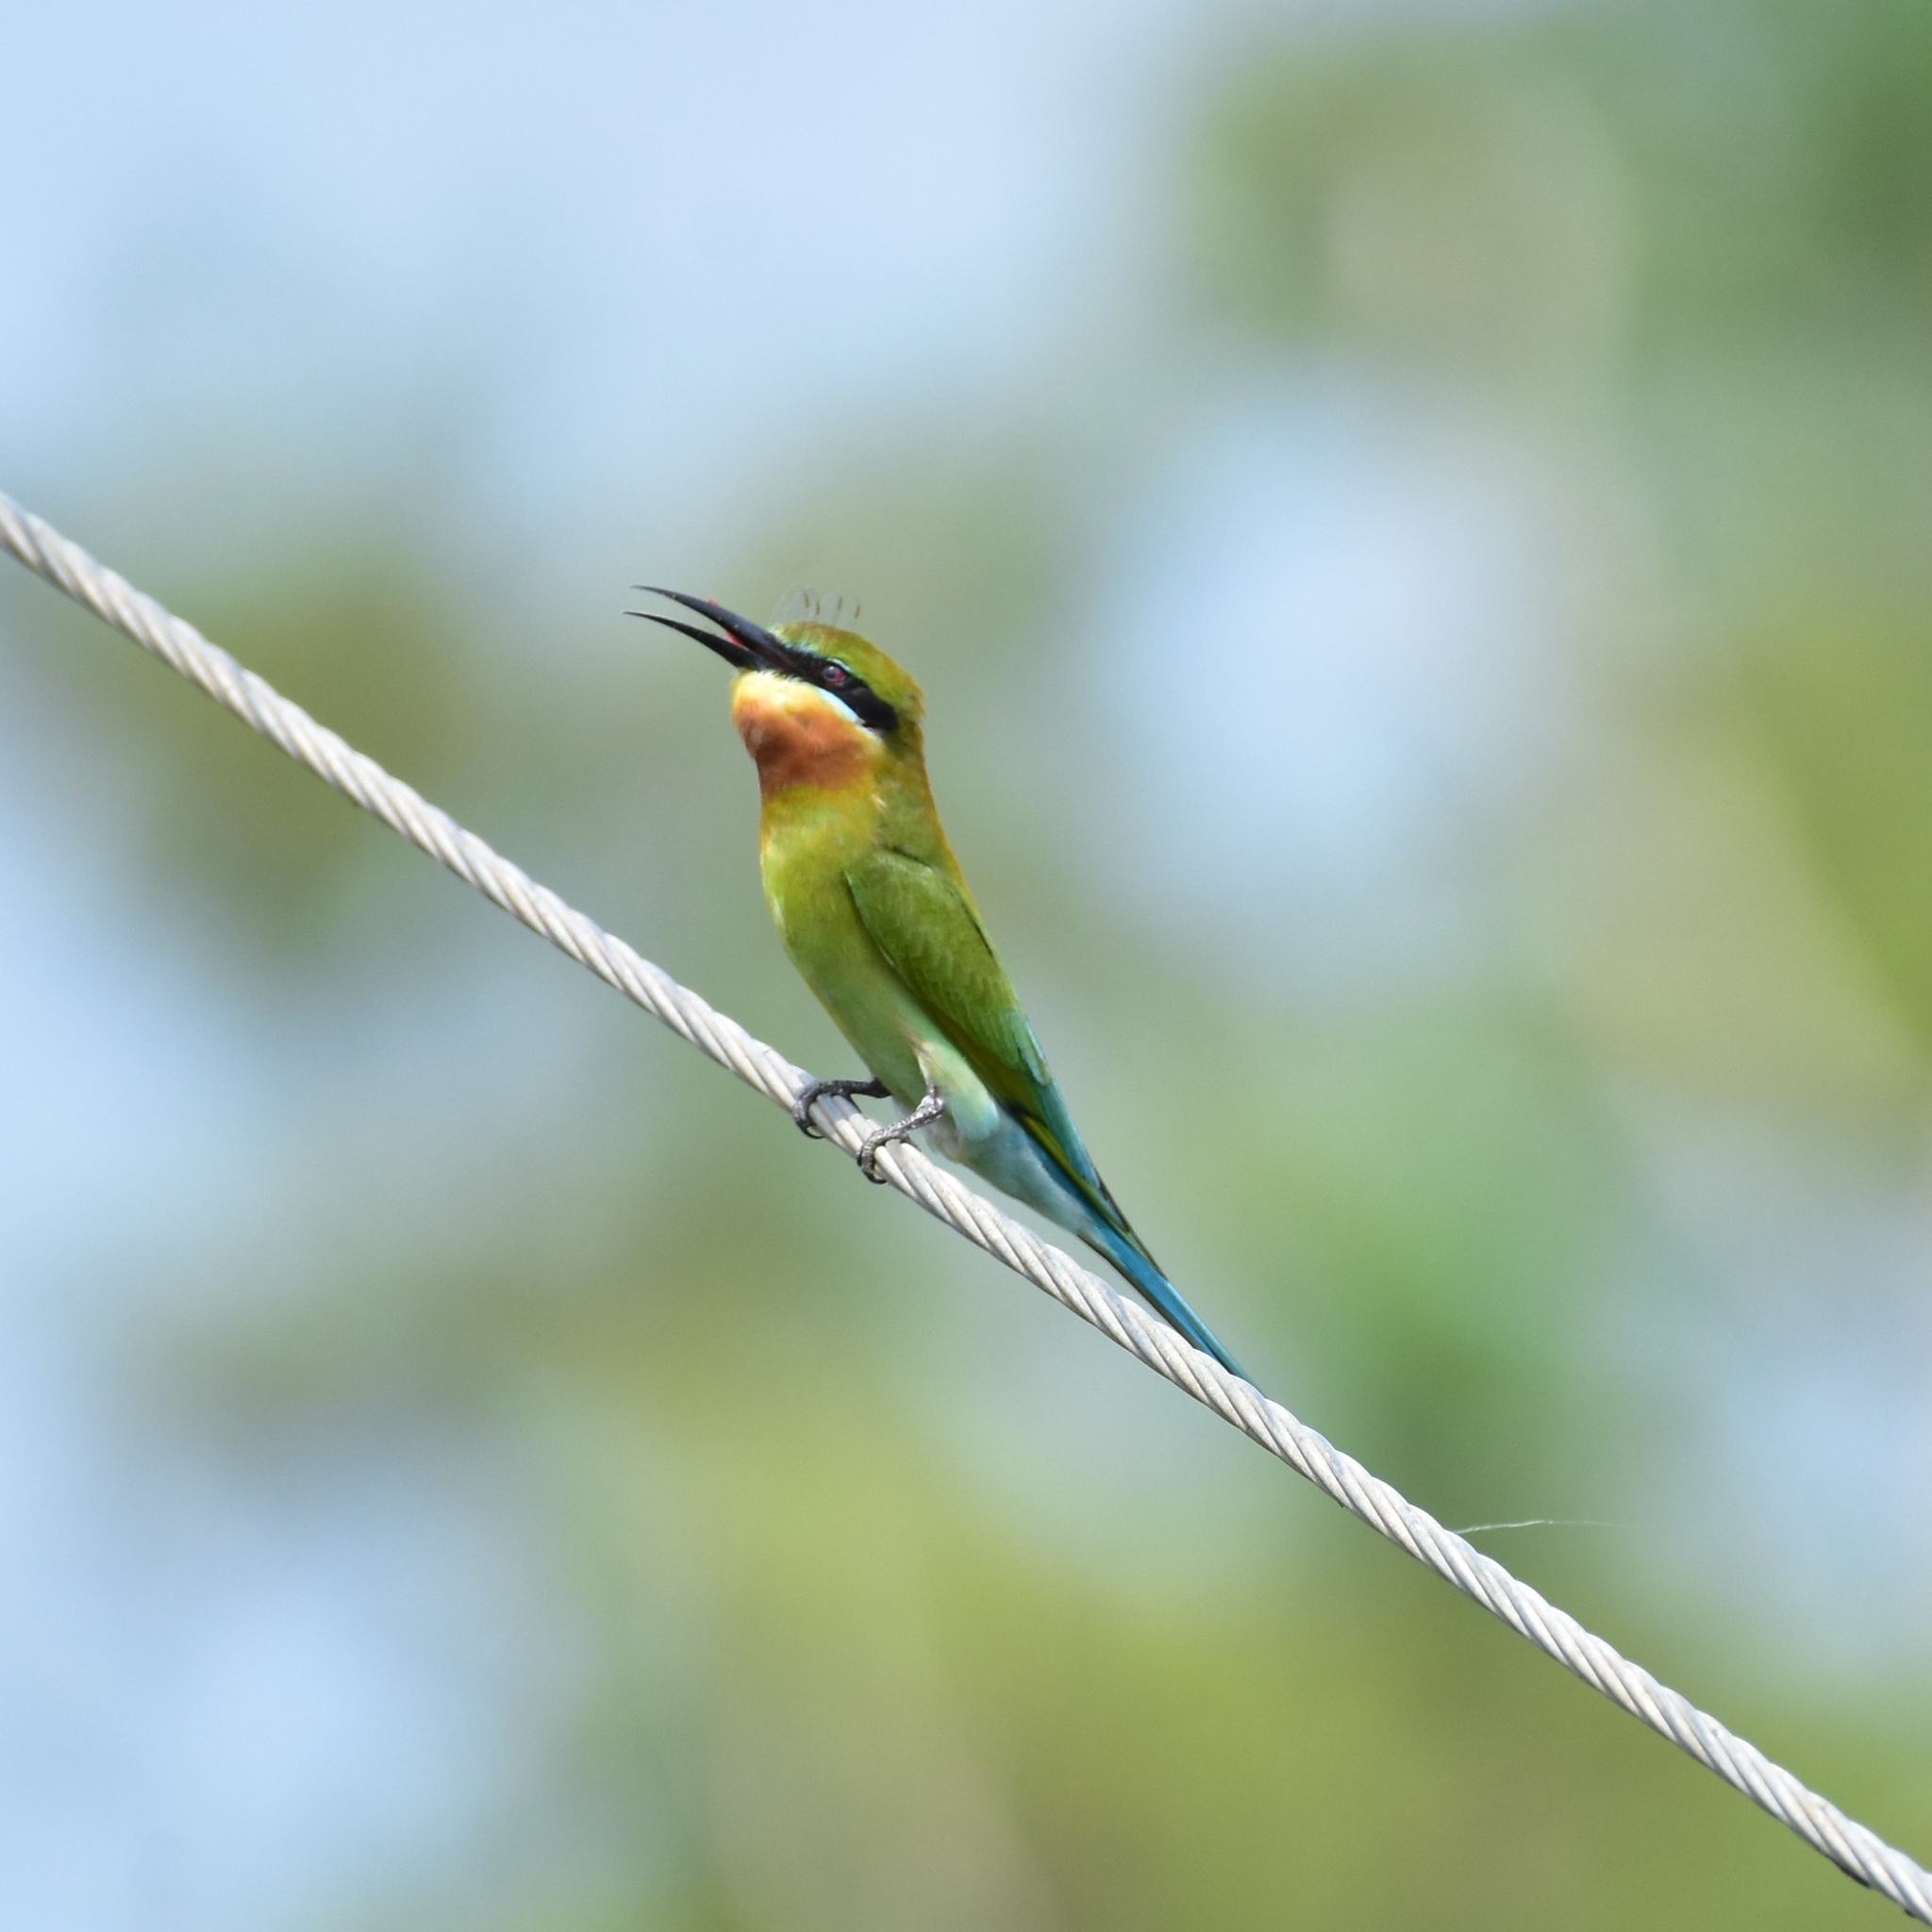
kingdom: Animalia
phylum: Chordata
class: Aves
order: Coraciiformes
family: Meropidae
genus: Merops
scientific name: Merops philippinus
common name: Blue-tailed bee-eater
